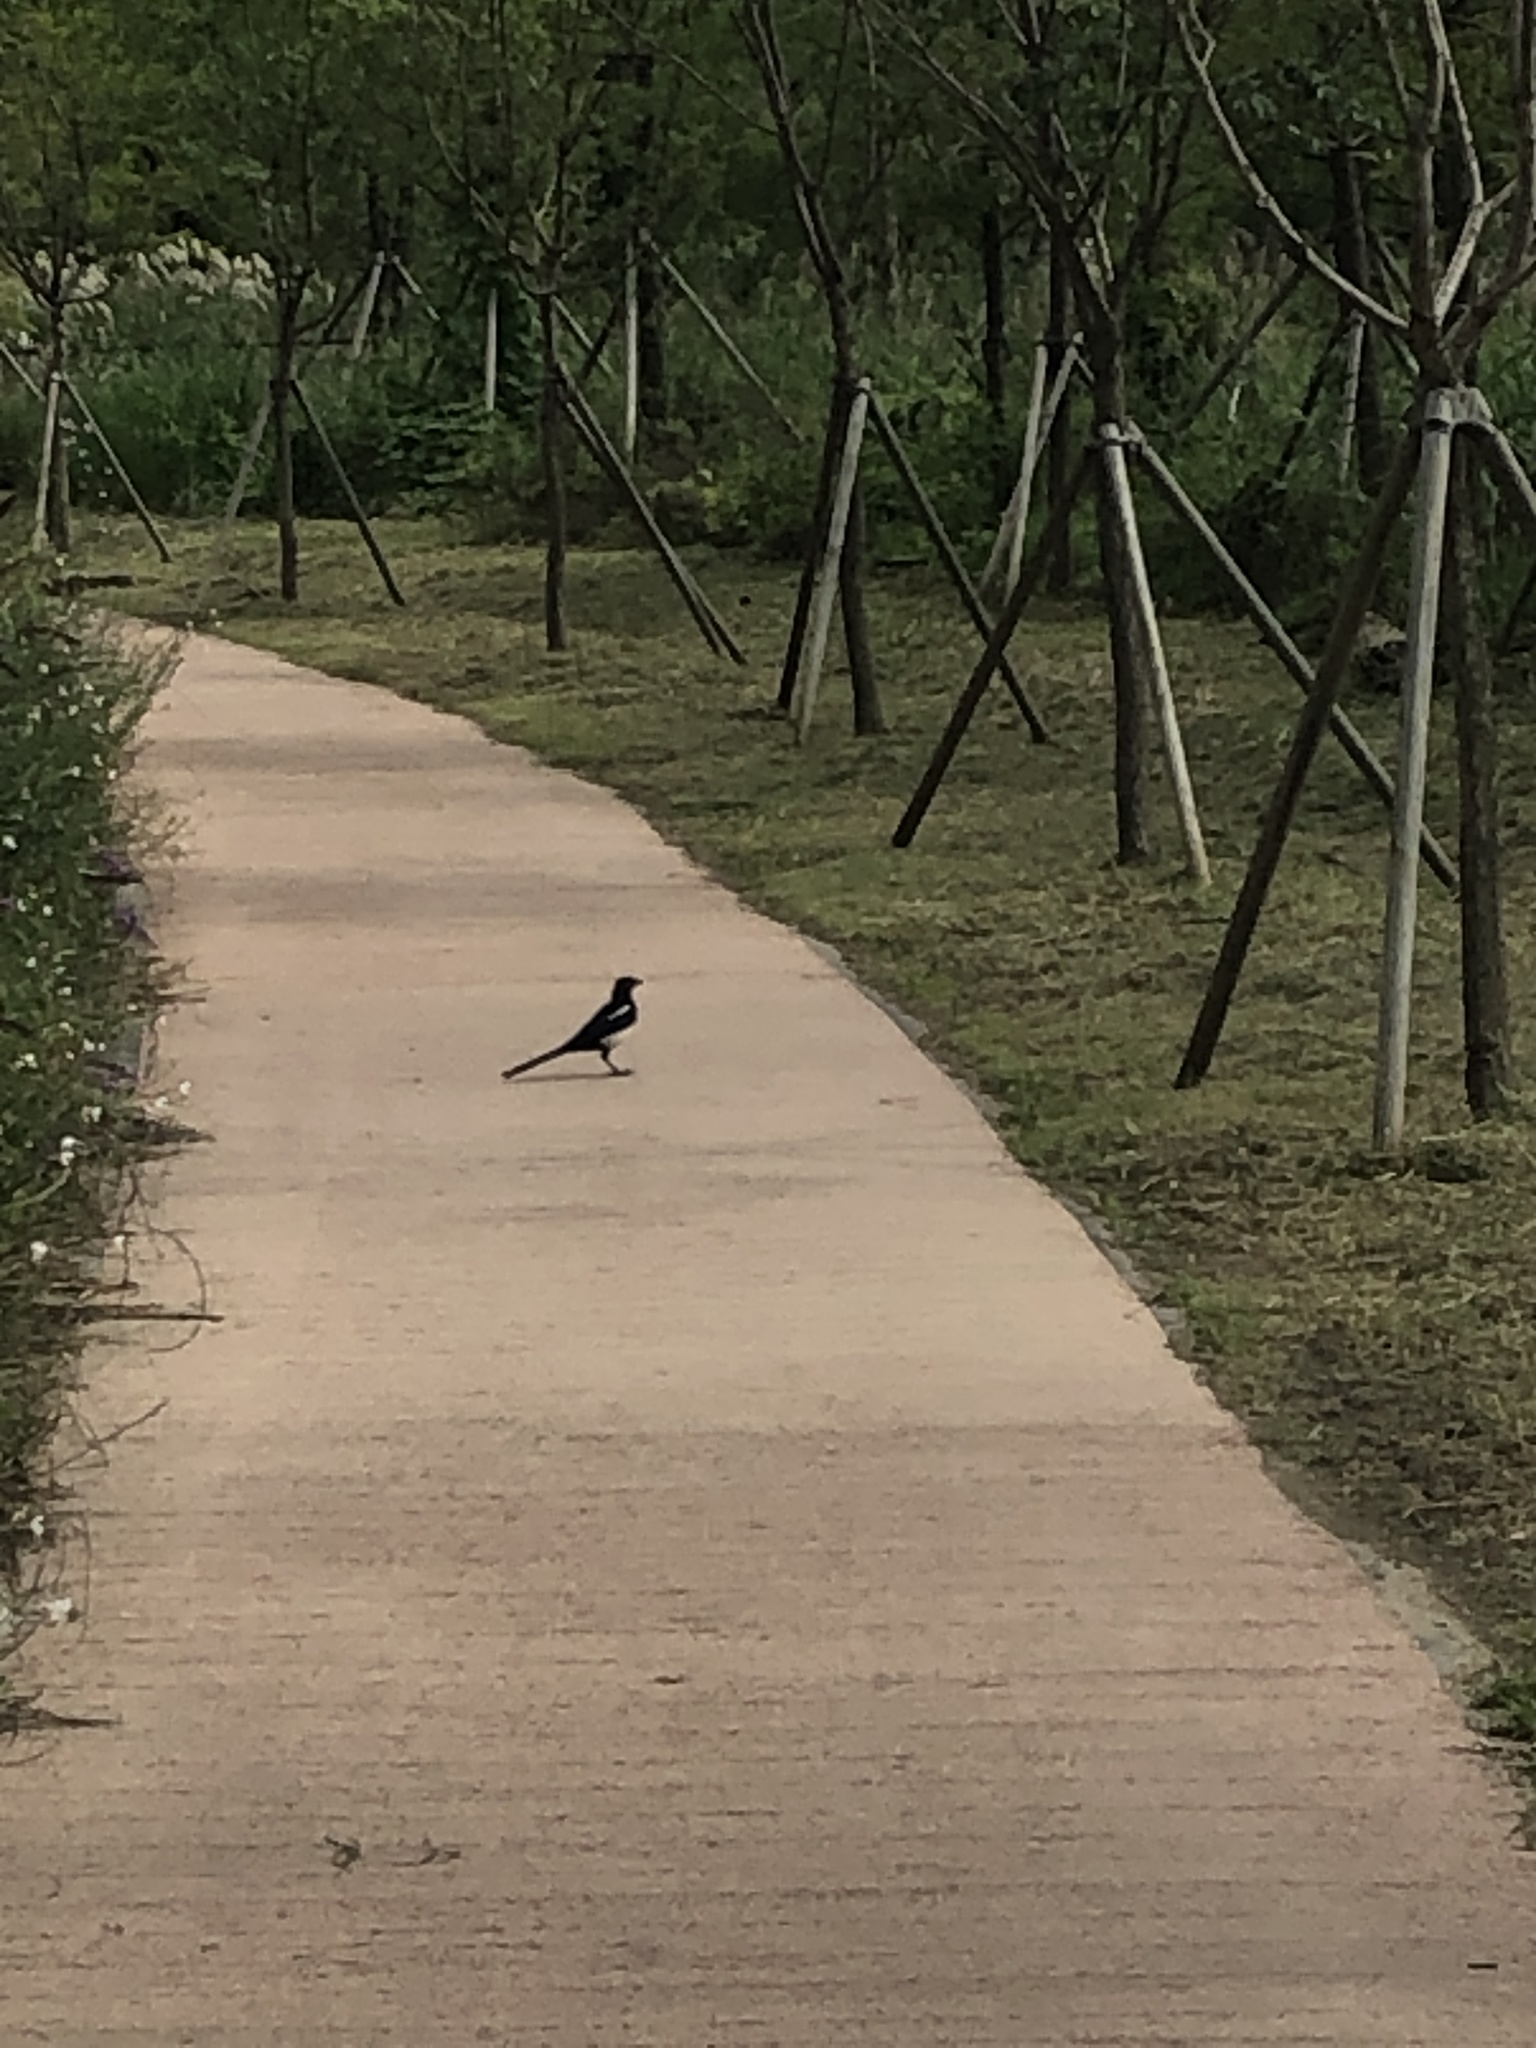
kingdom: Animalia
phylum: Chordata
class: Aves
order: Passeriformes
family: Corvidae
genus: Pica
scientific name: Pica serica
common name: Oriental magpie
